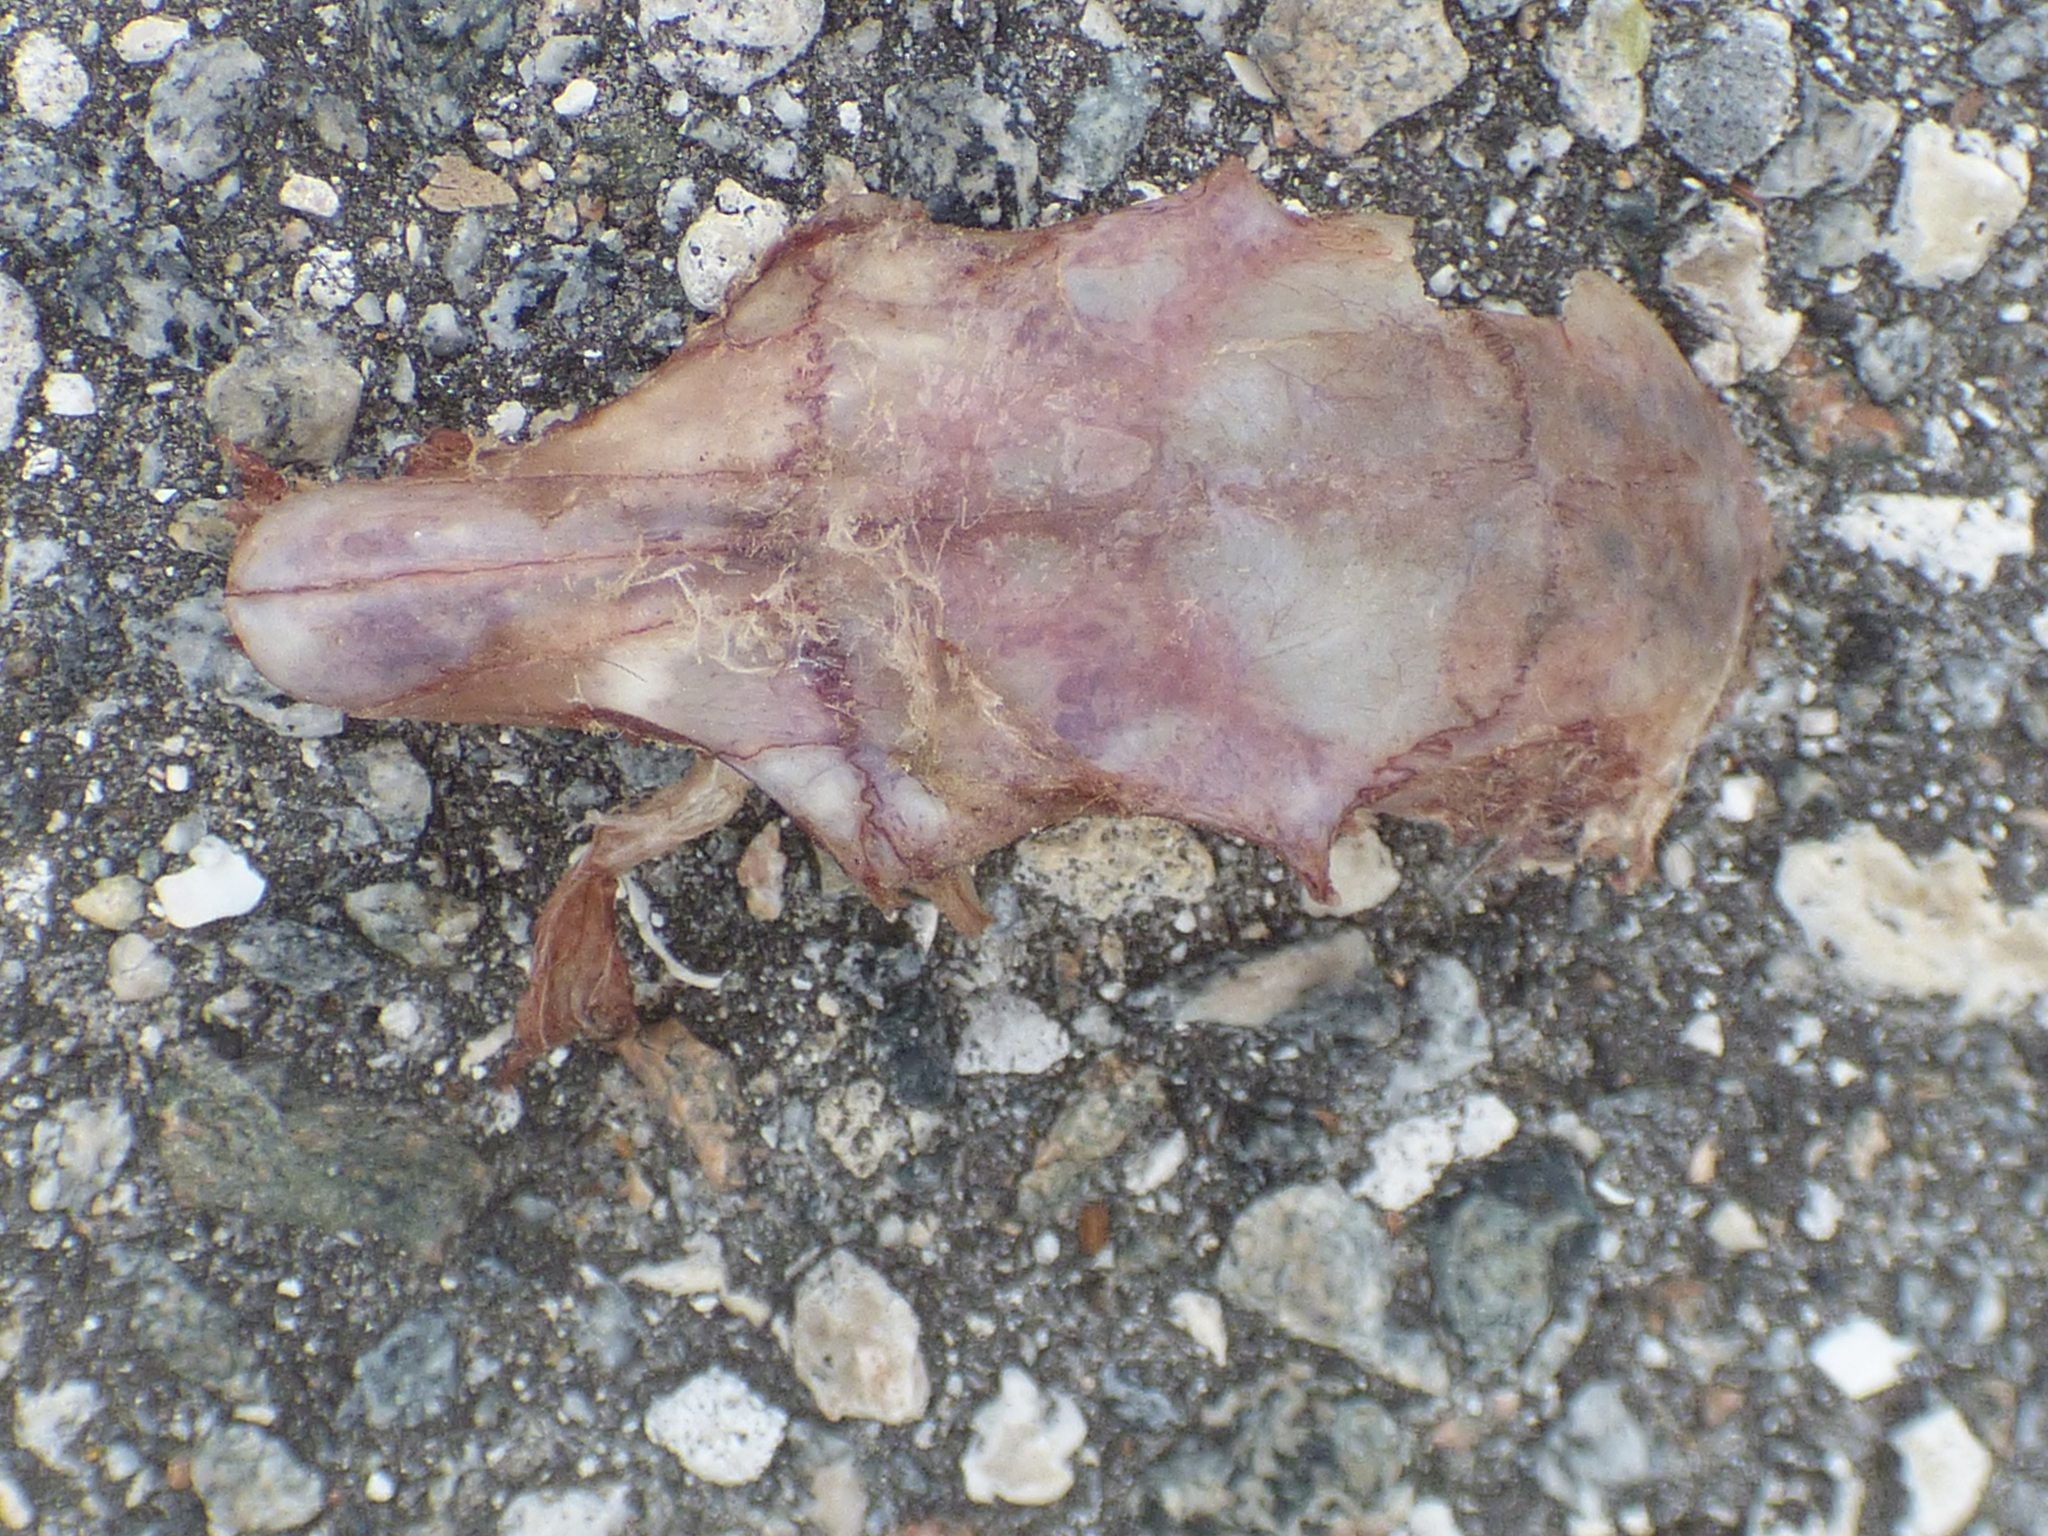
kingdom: Animalia
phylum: Chordata
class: Mammalia
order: Rodentia
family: Sciuridae
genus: Sciurus
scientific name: Sciurus carolinensis
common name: Eastern gray squirrel
